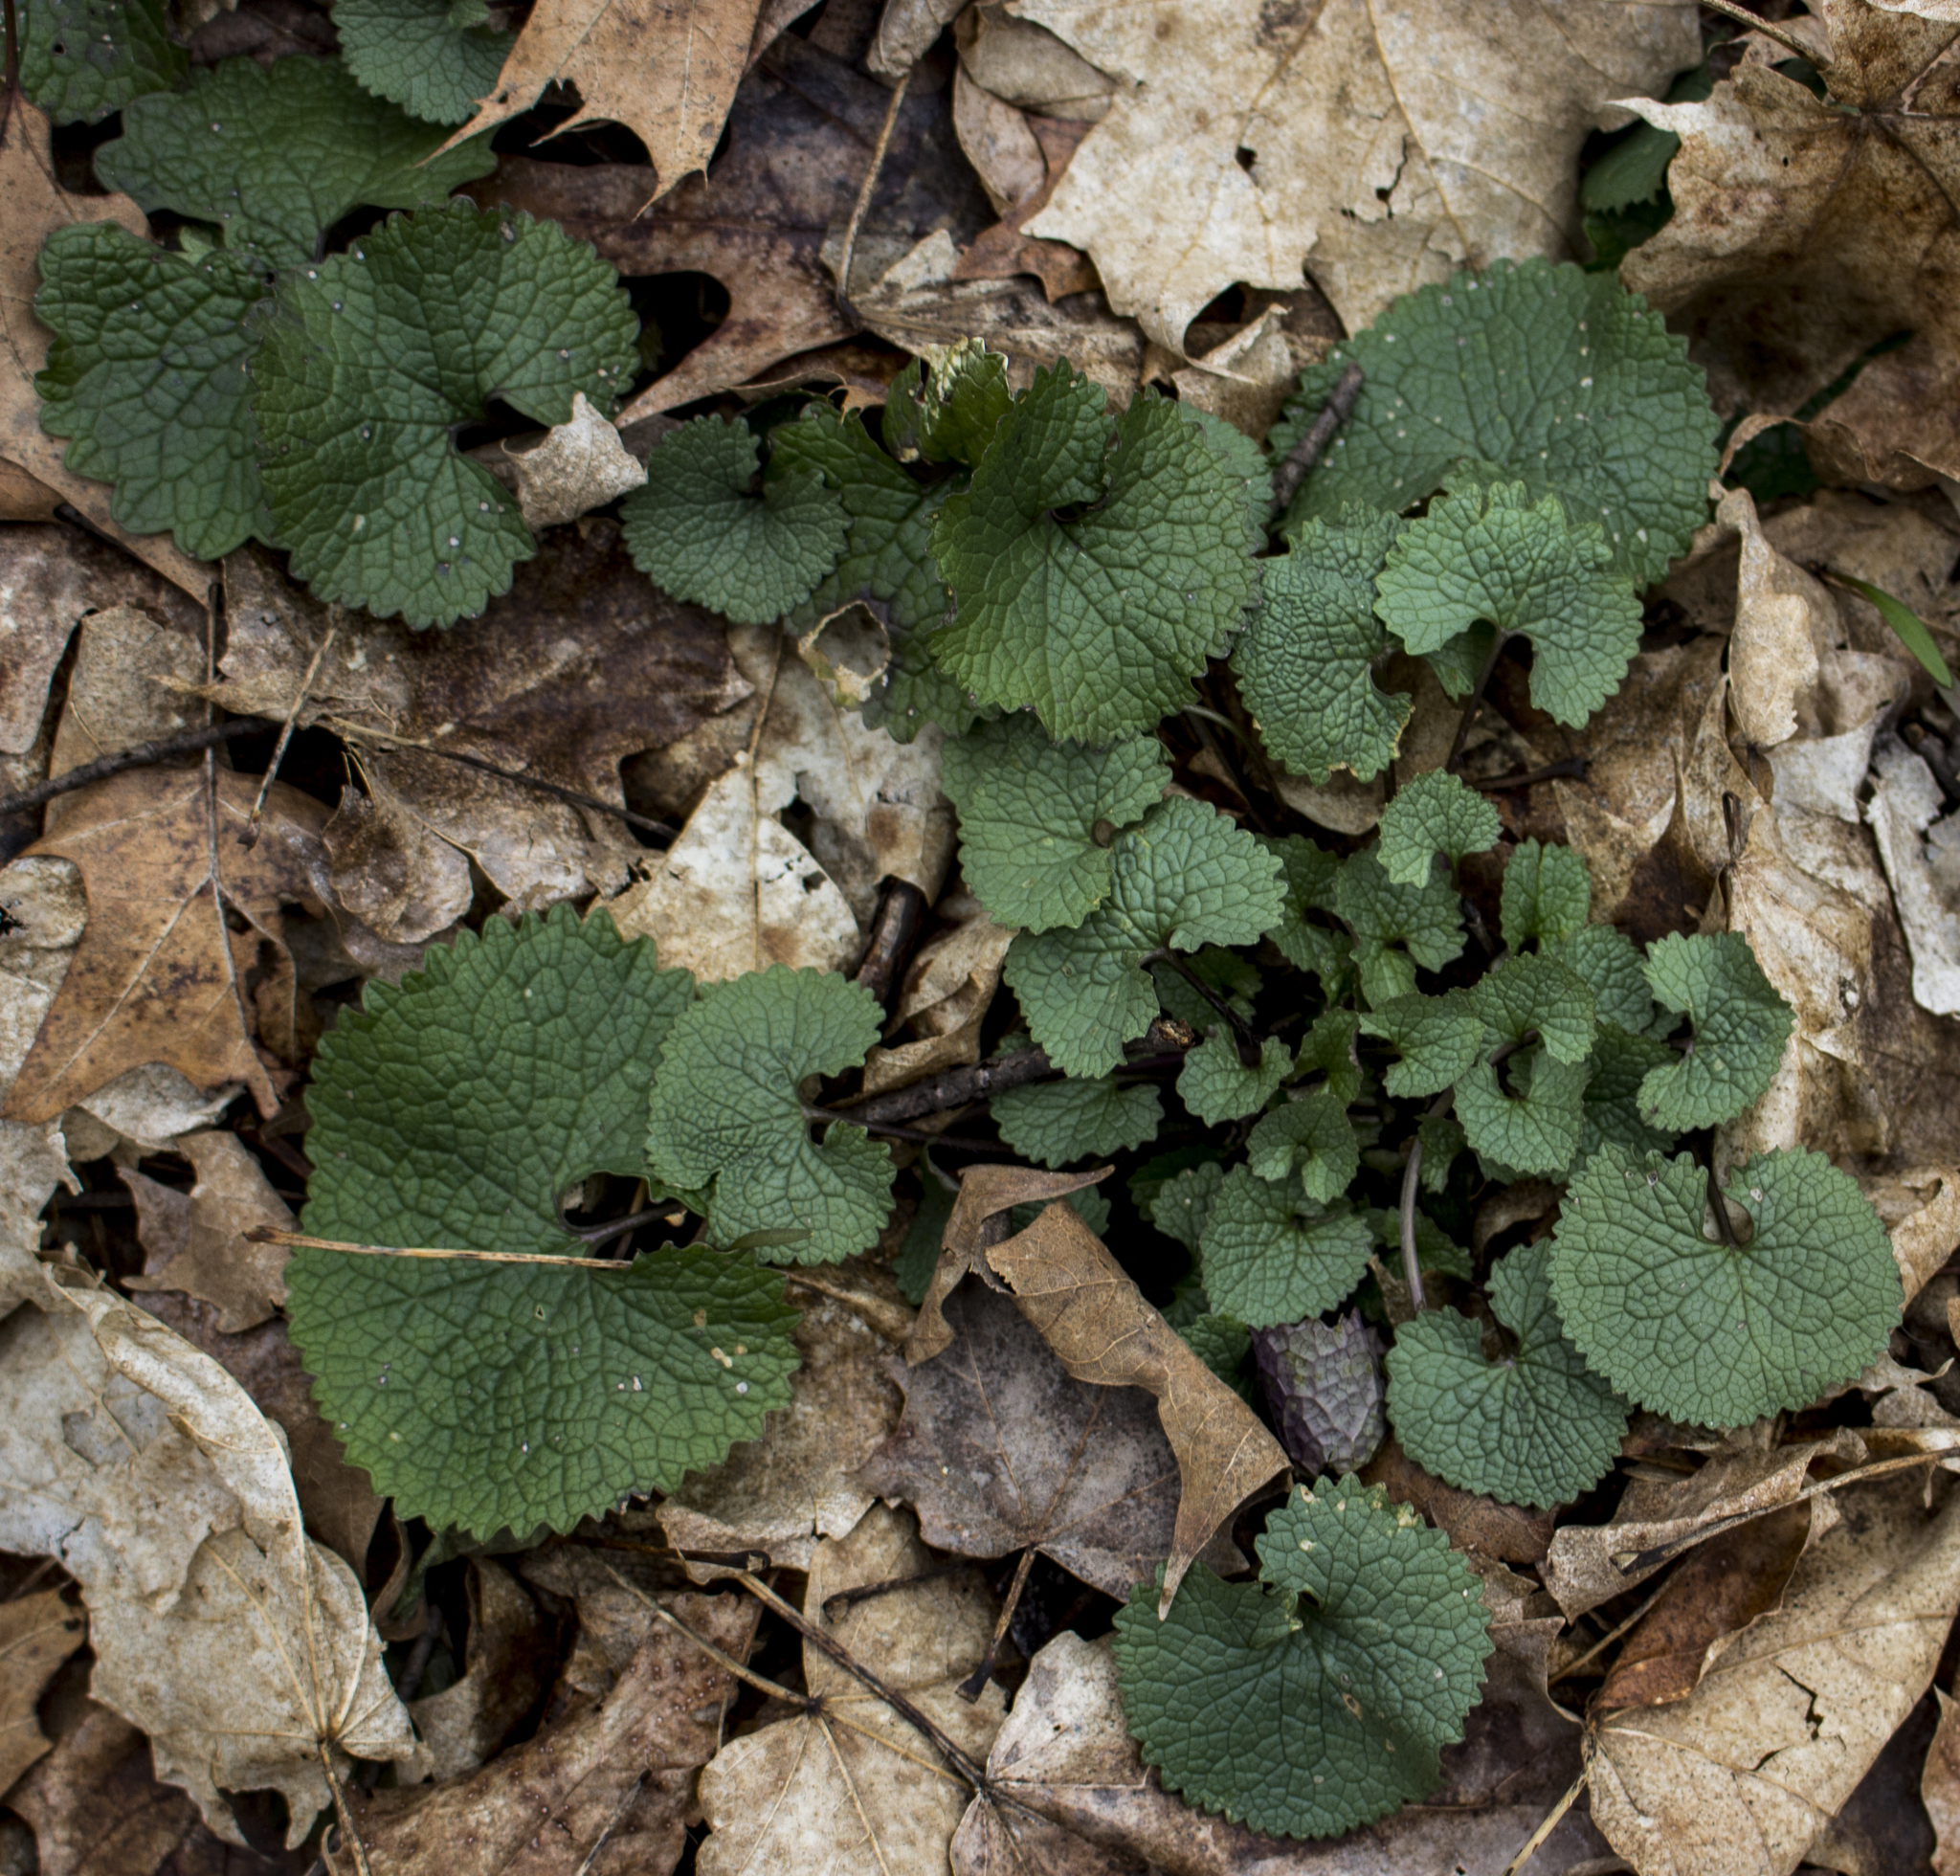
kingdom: Plantae
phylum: Tracheophyta
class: Magnoliopsida
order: Brassicales
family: Brassicaceae
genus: Alliaria
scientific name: Alliaria petiolata
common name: Garlic mustard
